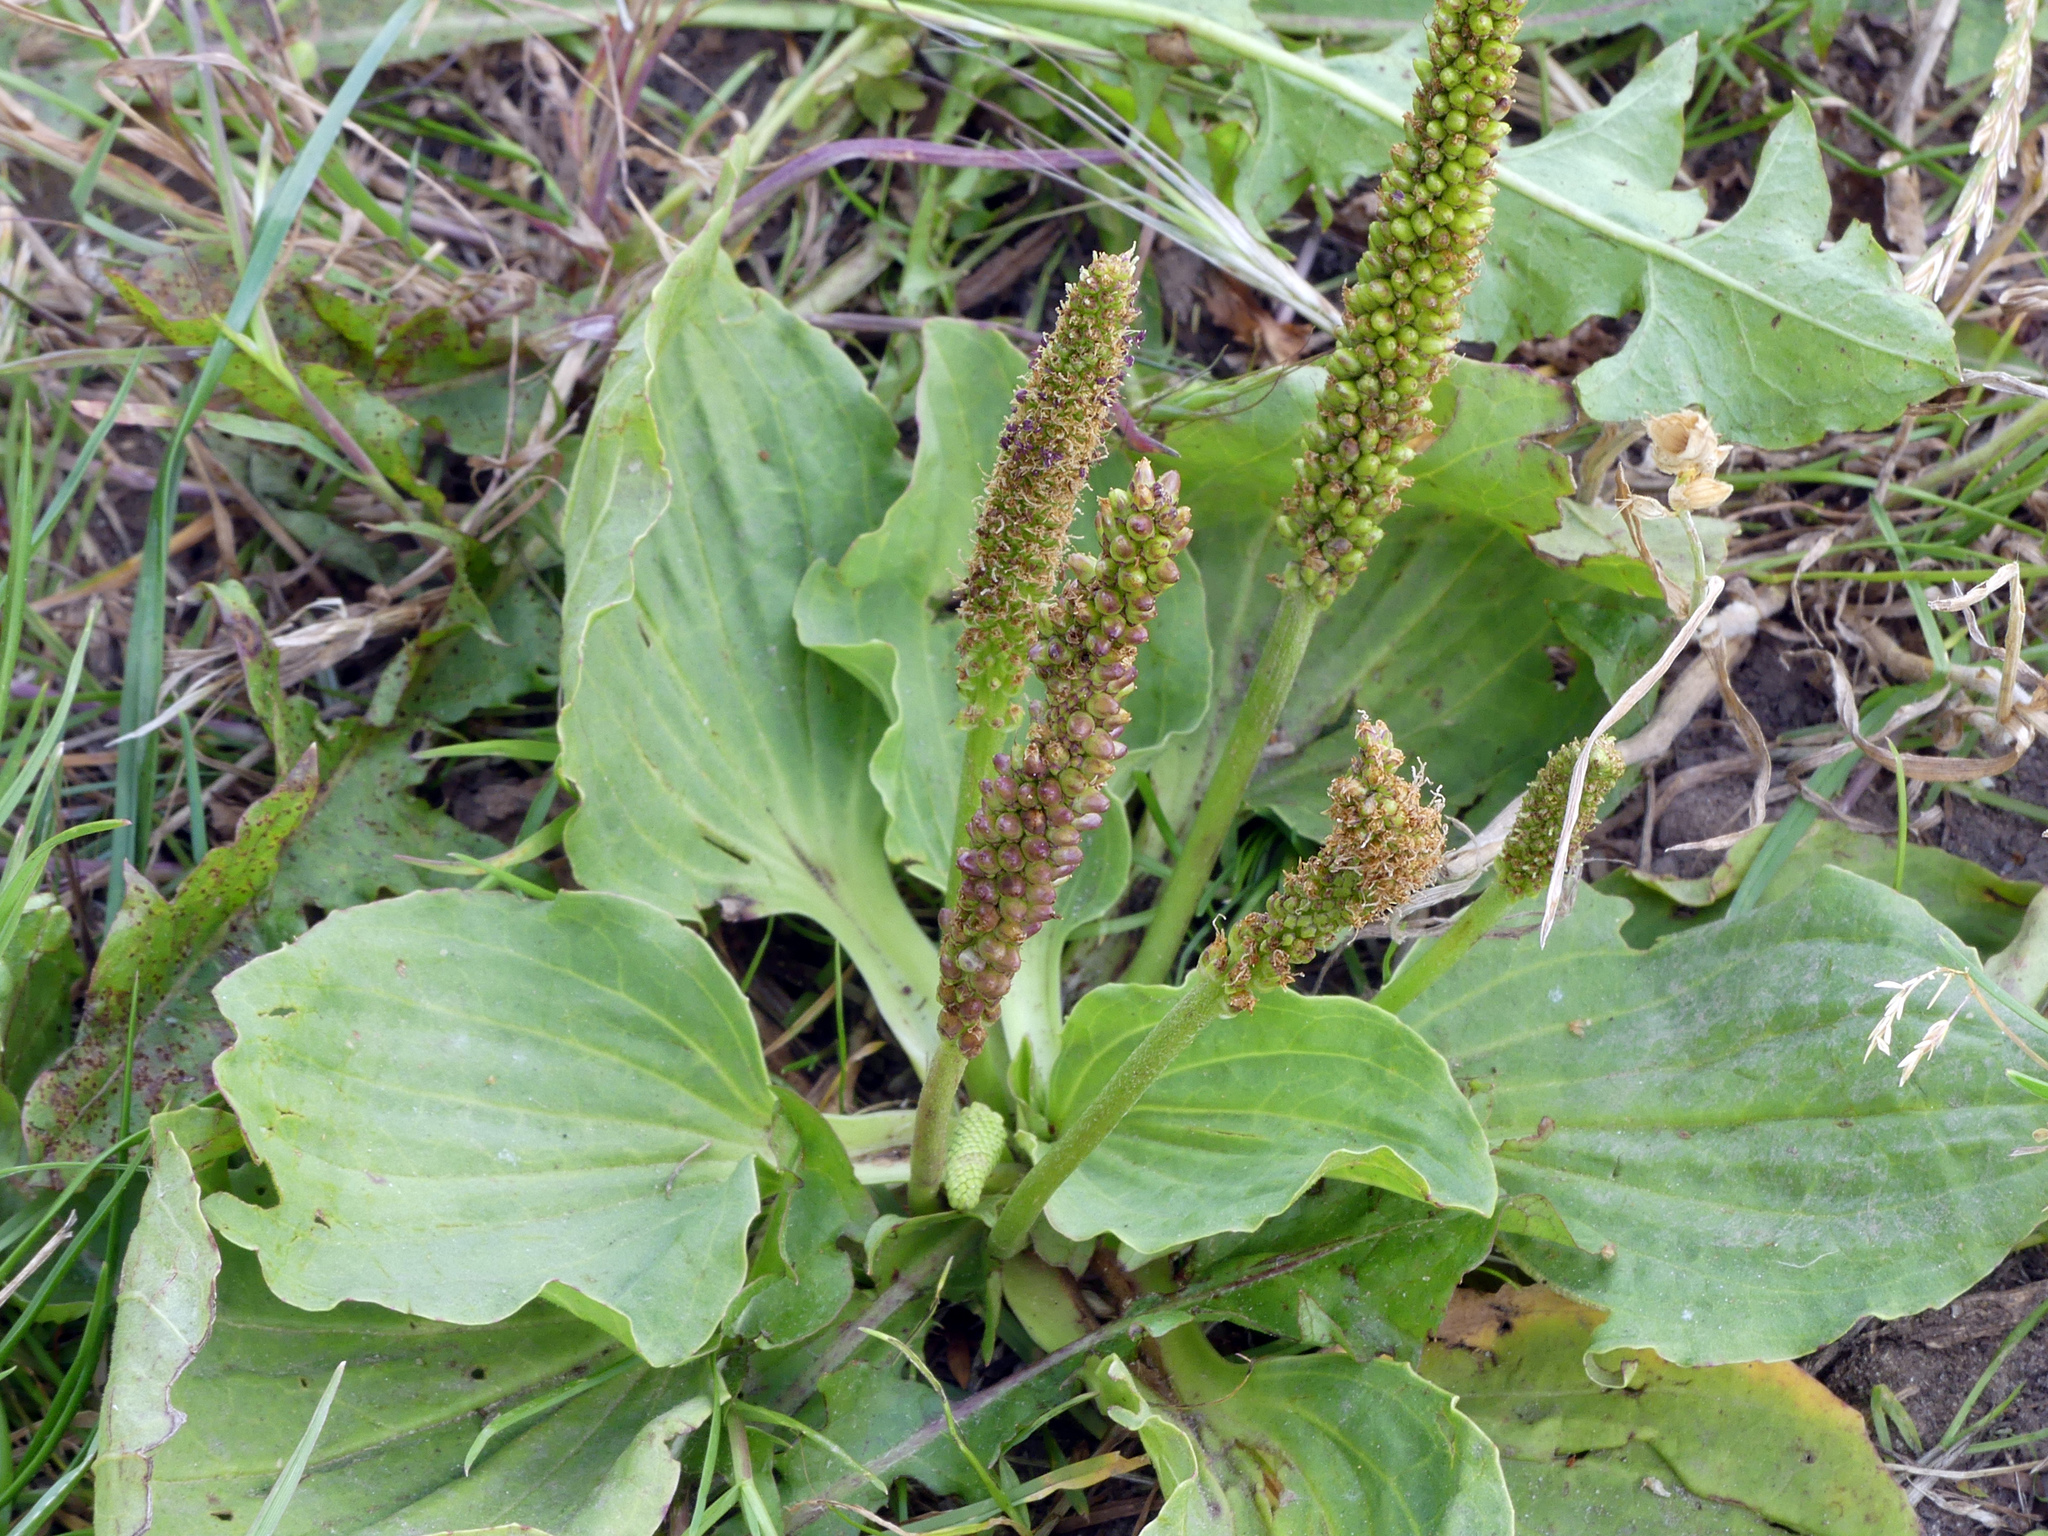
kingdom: Plantae
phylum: Tracheophyta
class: Magnoliopsida
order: Lamiales
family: Plantaginaceae
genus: Plantago
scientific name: Plantago major
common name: Common plantain
